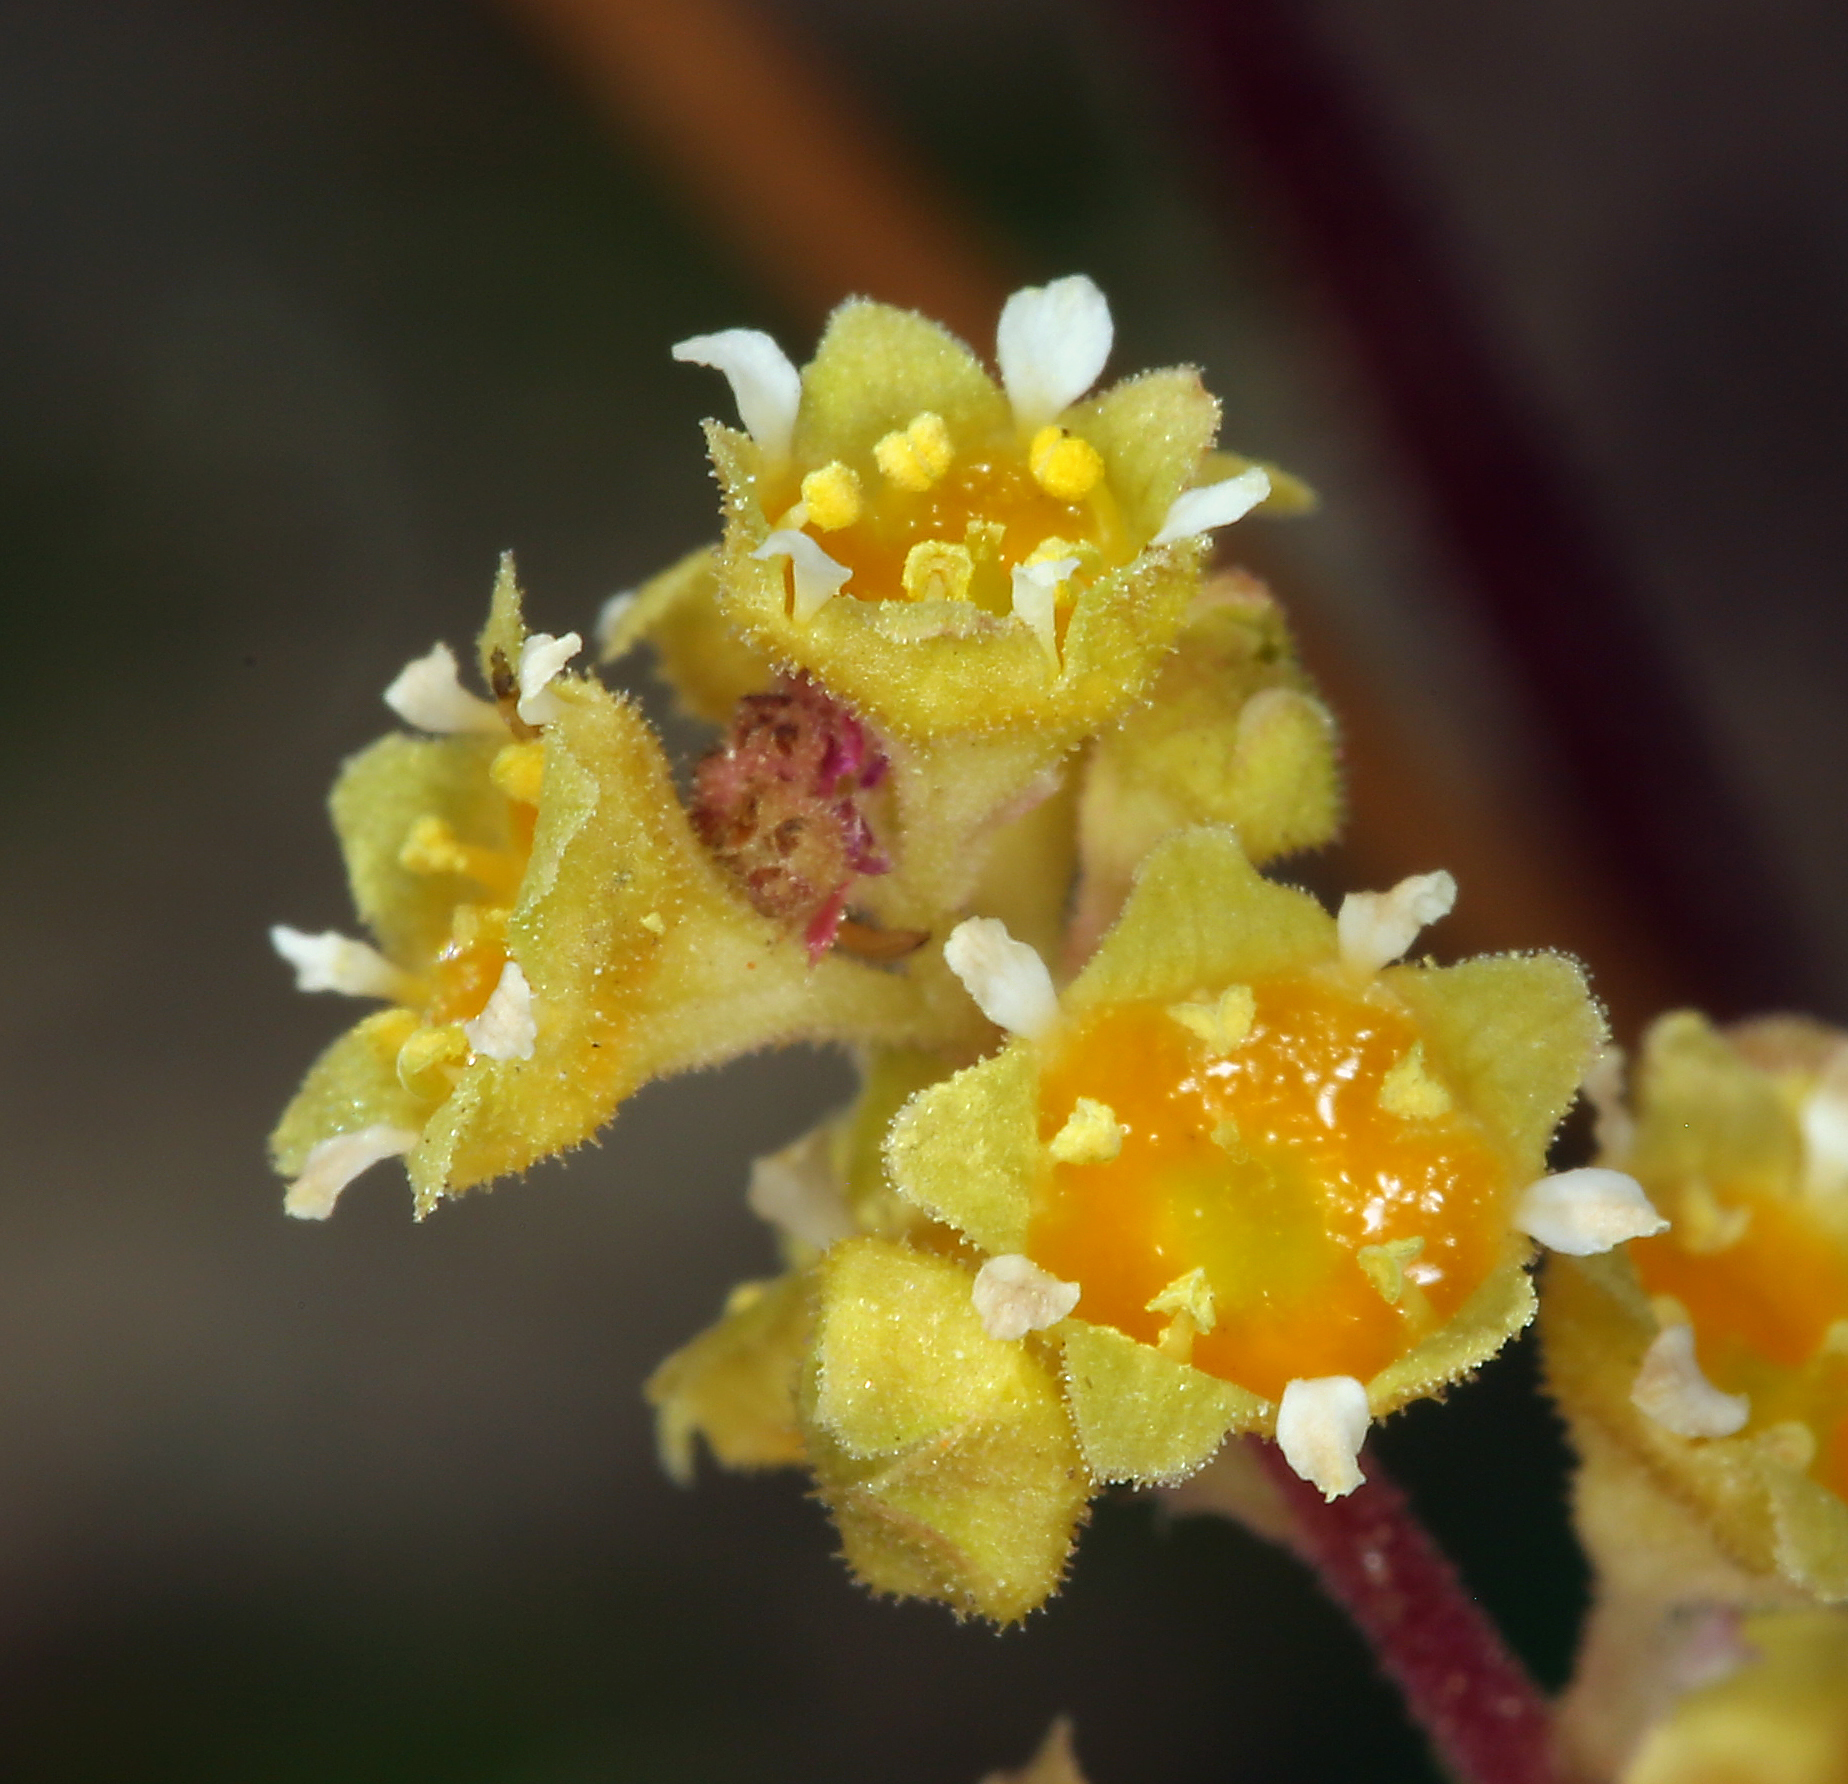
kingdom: Plantae
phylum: Tracheophyta
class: Magnoliopsida
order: Saxifragales
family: Saxifragaceae
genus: Heuchera
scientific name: Heuchera parvifolia
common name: Common alumroot
